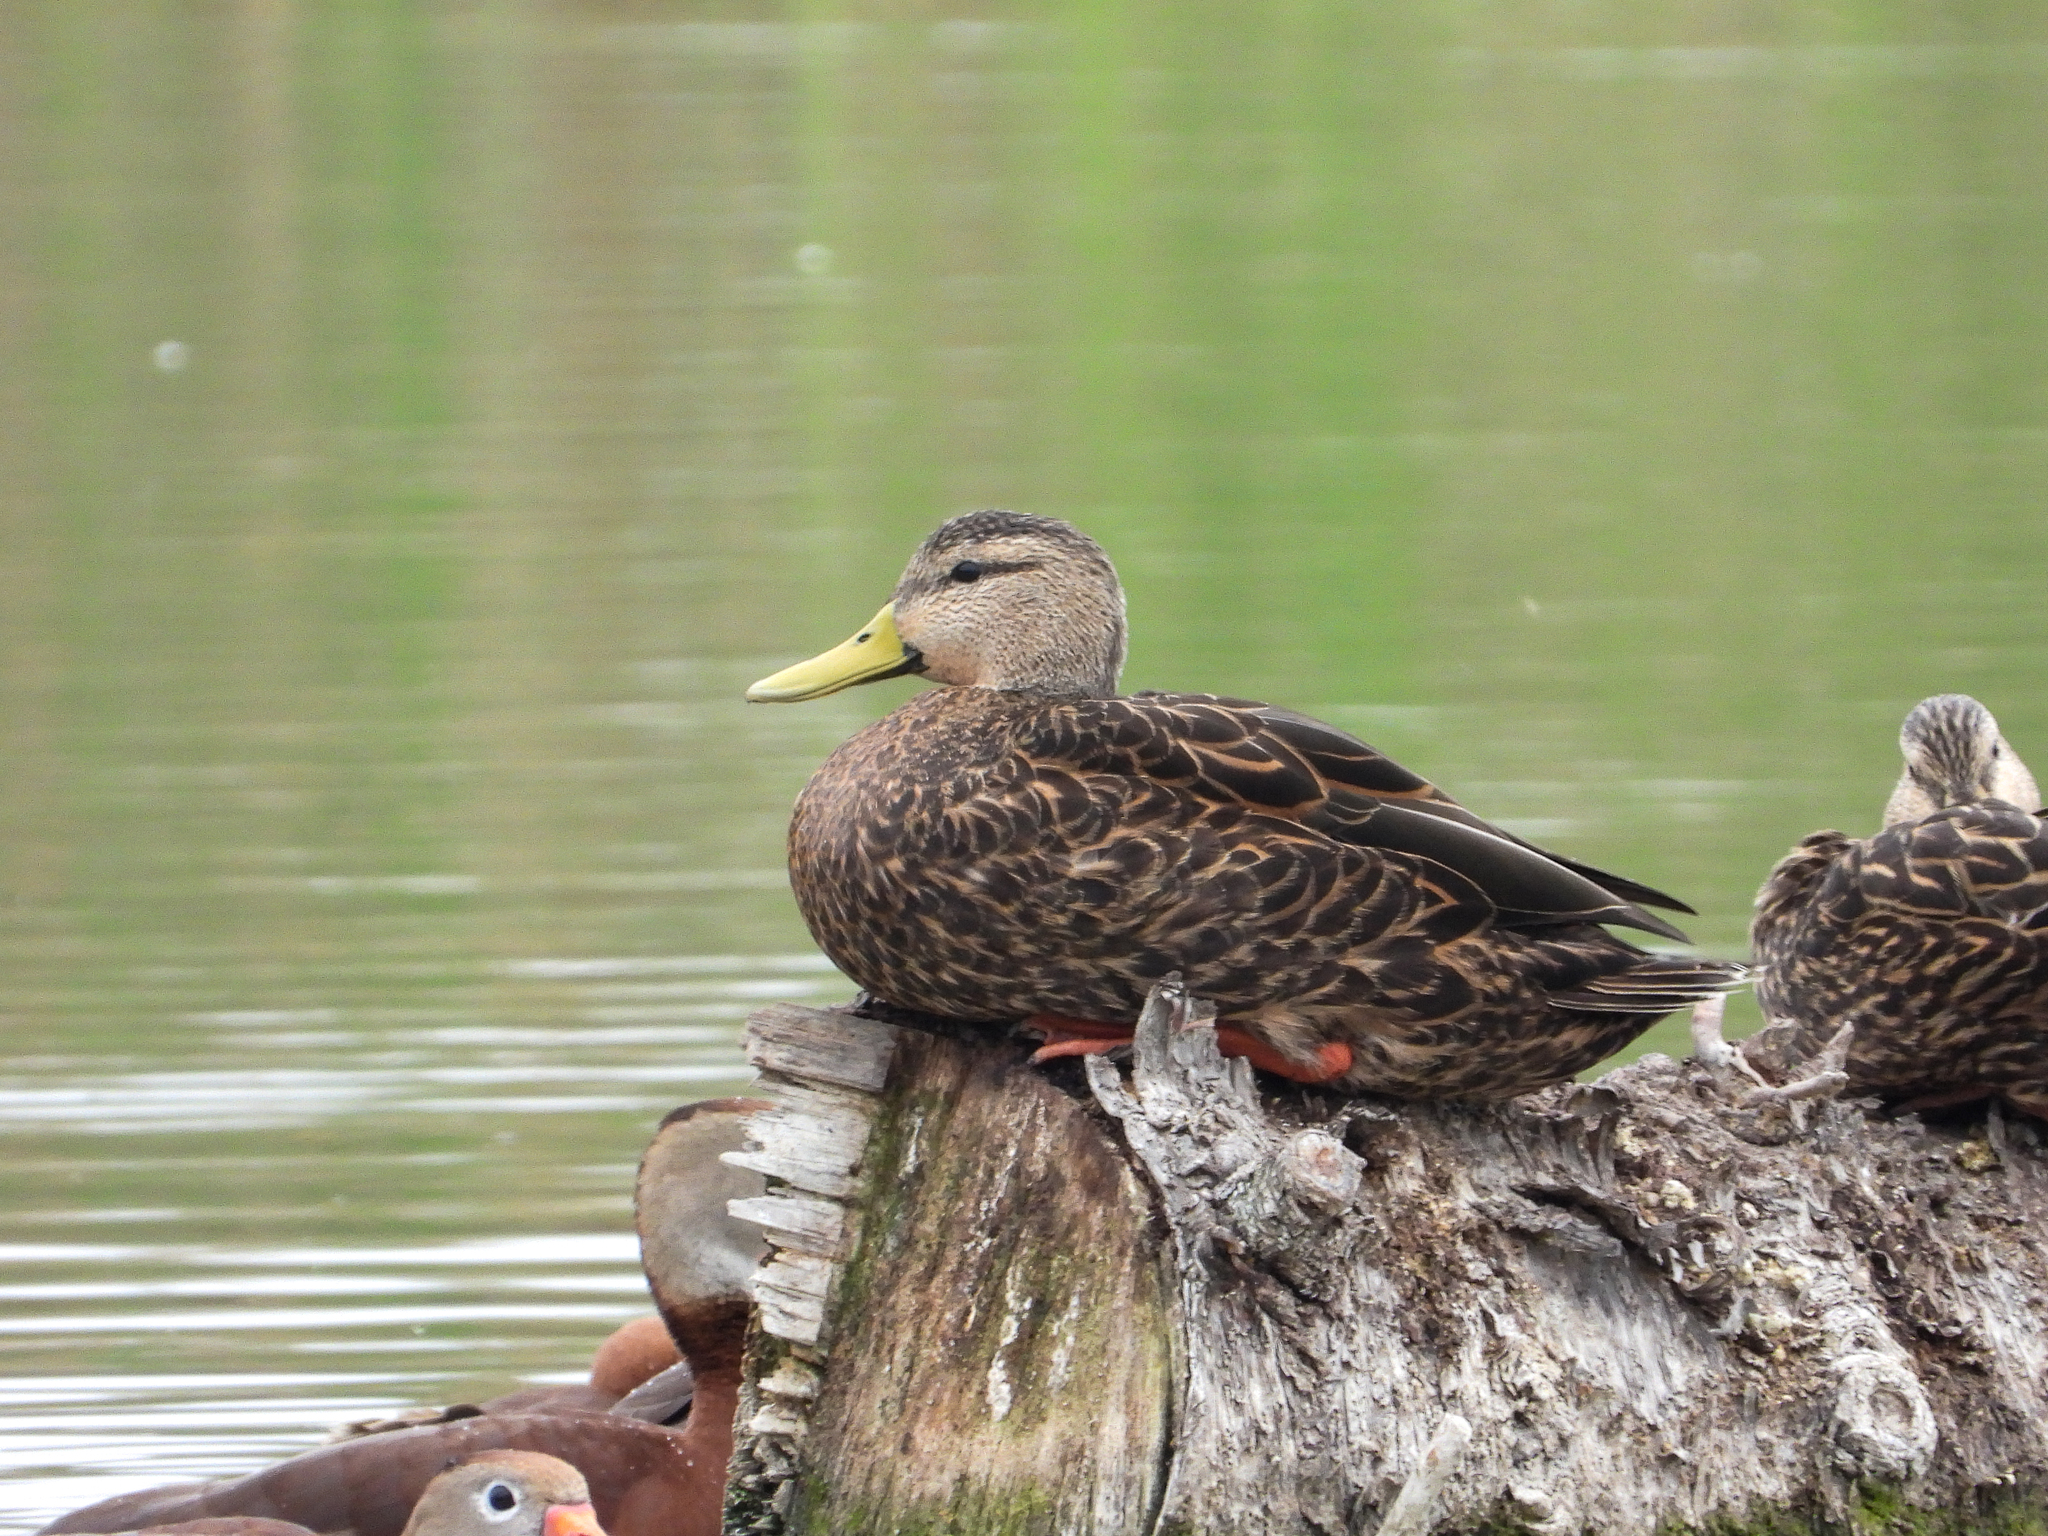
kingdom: Animalia
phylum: Chordata
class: Aves
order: Anseriformes
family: Anatidae
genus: Anas
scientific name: Anas fulvigula
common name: Mottled duck
